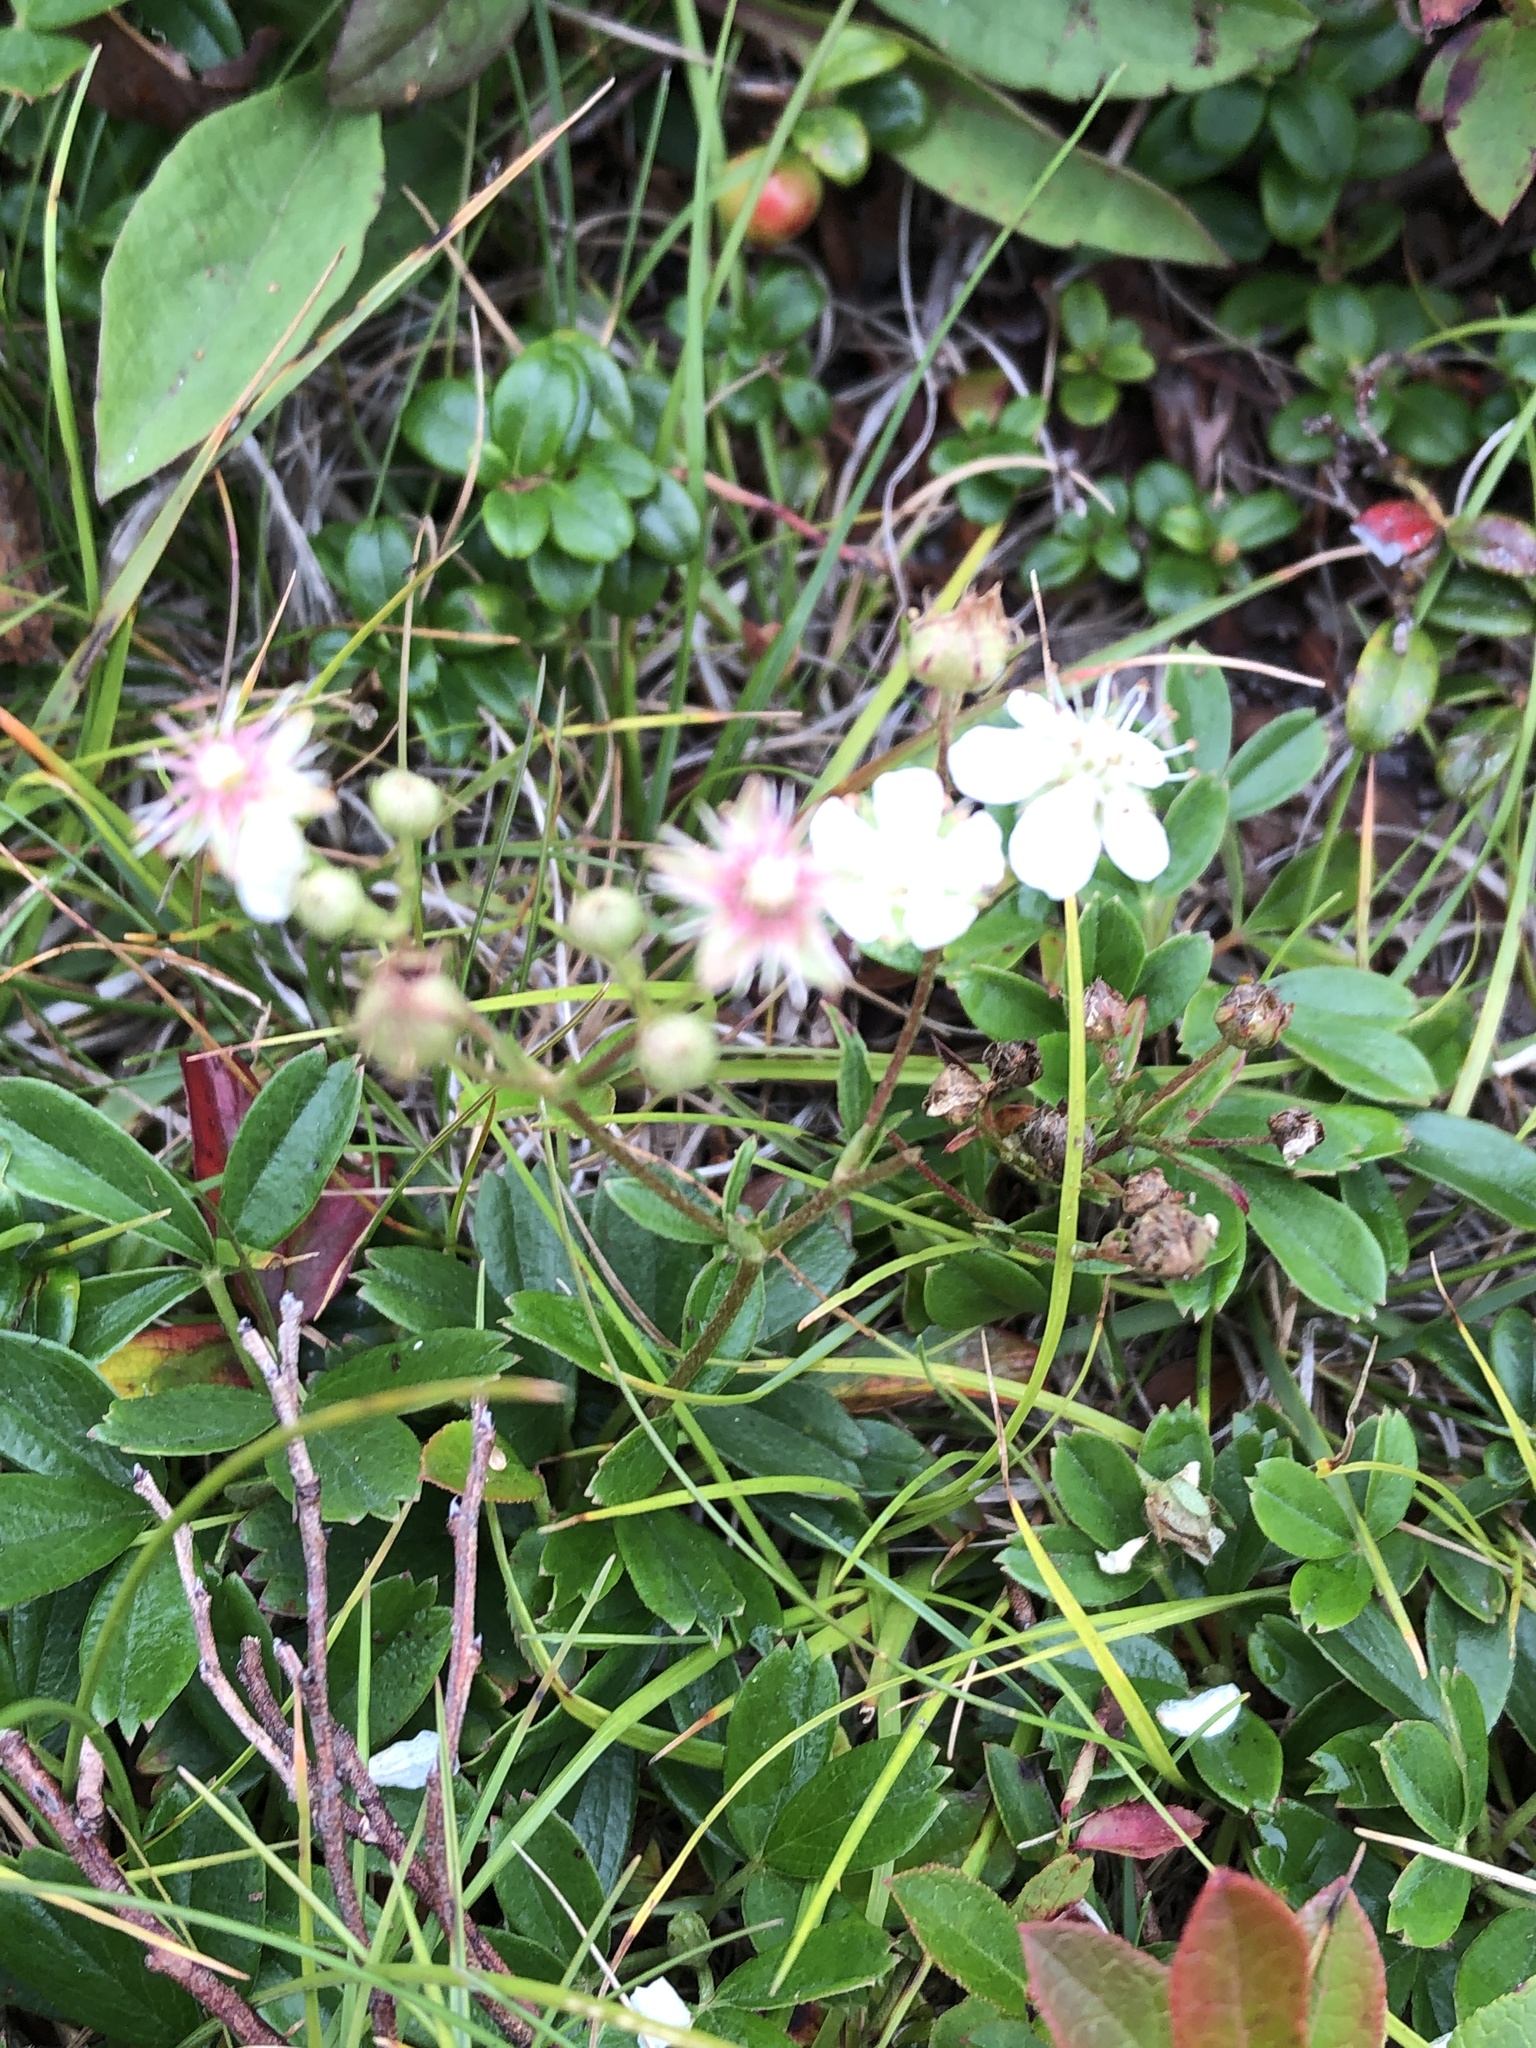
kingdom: Plantae
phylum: Tracheophyta
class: Magnoliopsida
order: Rosales
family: Rosaceae
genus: Sibbaldia
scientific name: Sibbaldia tridentata
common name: Three-toothed cinquefoil
